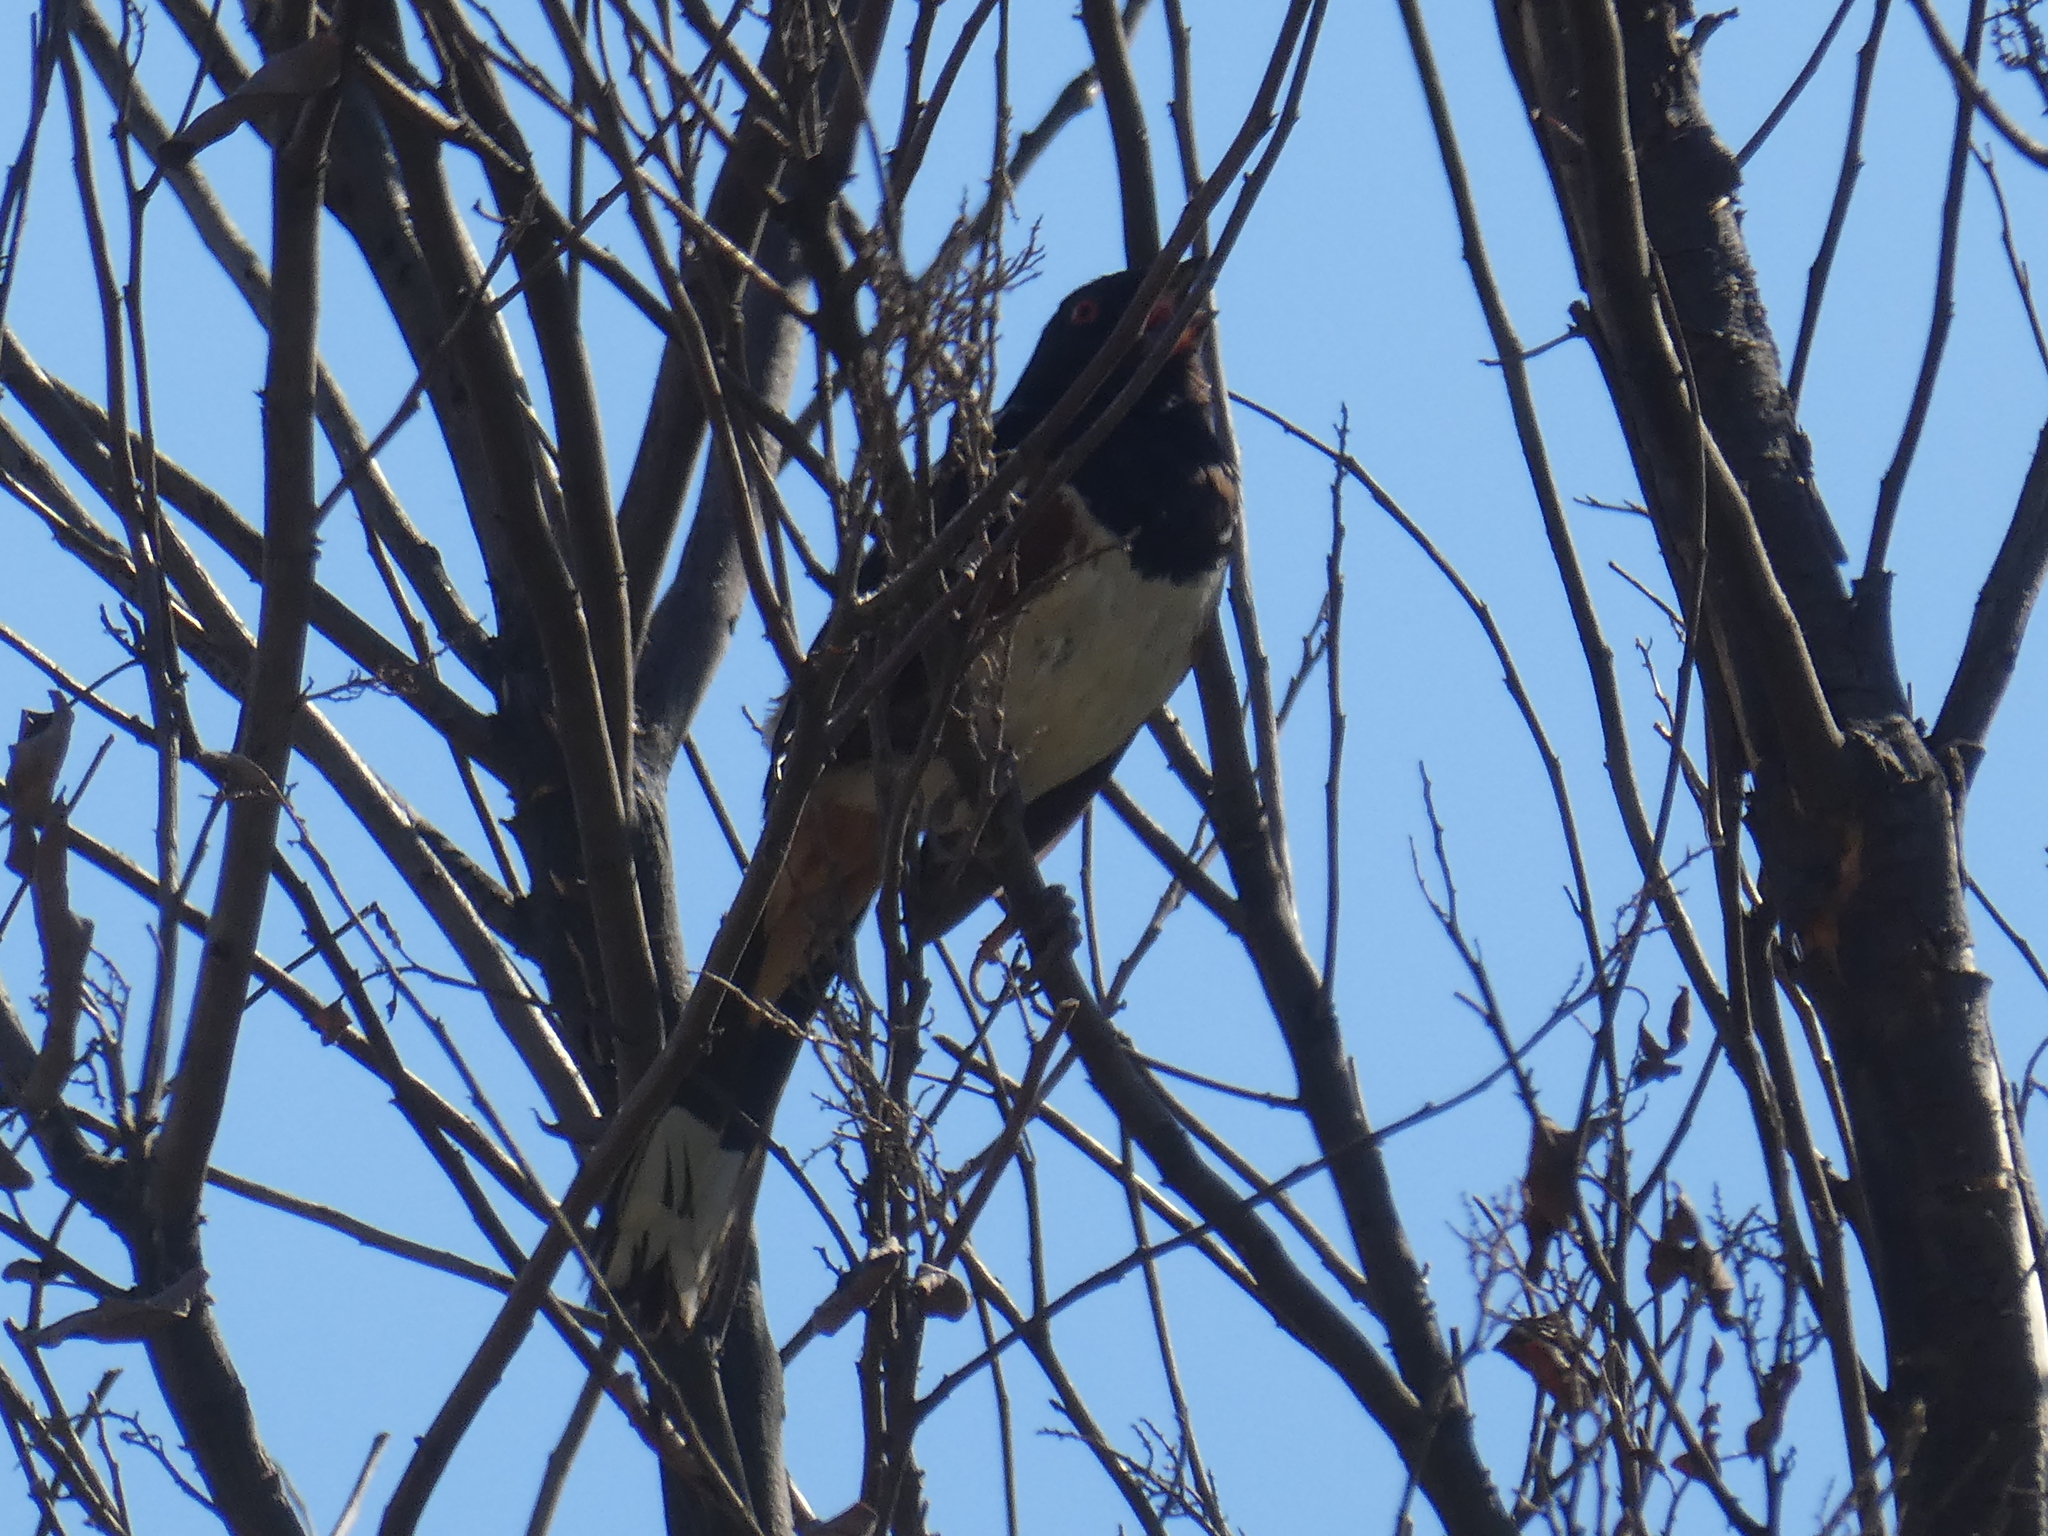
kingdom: Animalia
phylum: Chordata
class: Aves
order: Passeriformes
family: Passerellidae
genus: Pipilo
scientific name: Pipilo maculatus
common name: Spotted towhee
